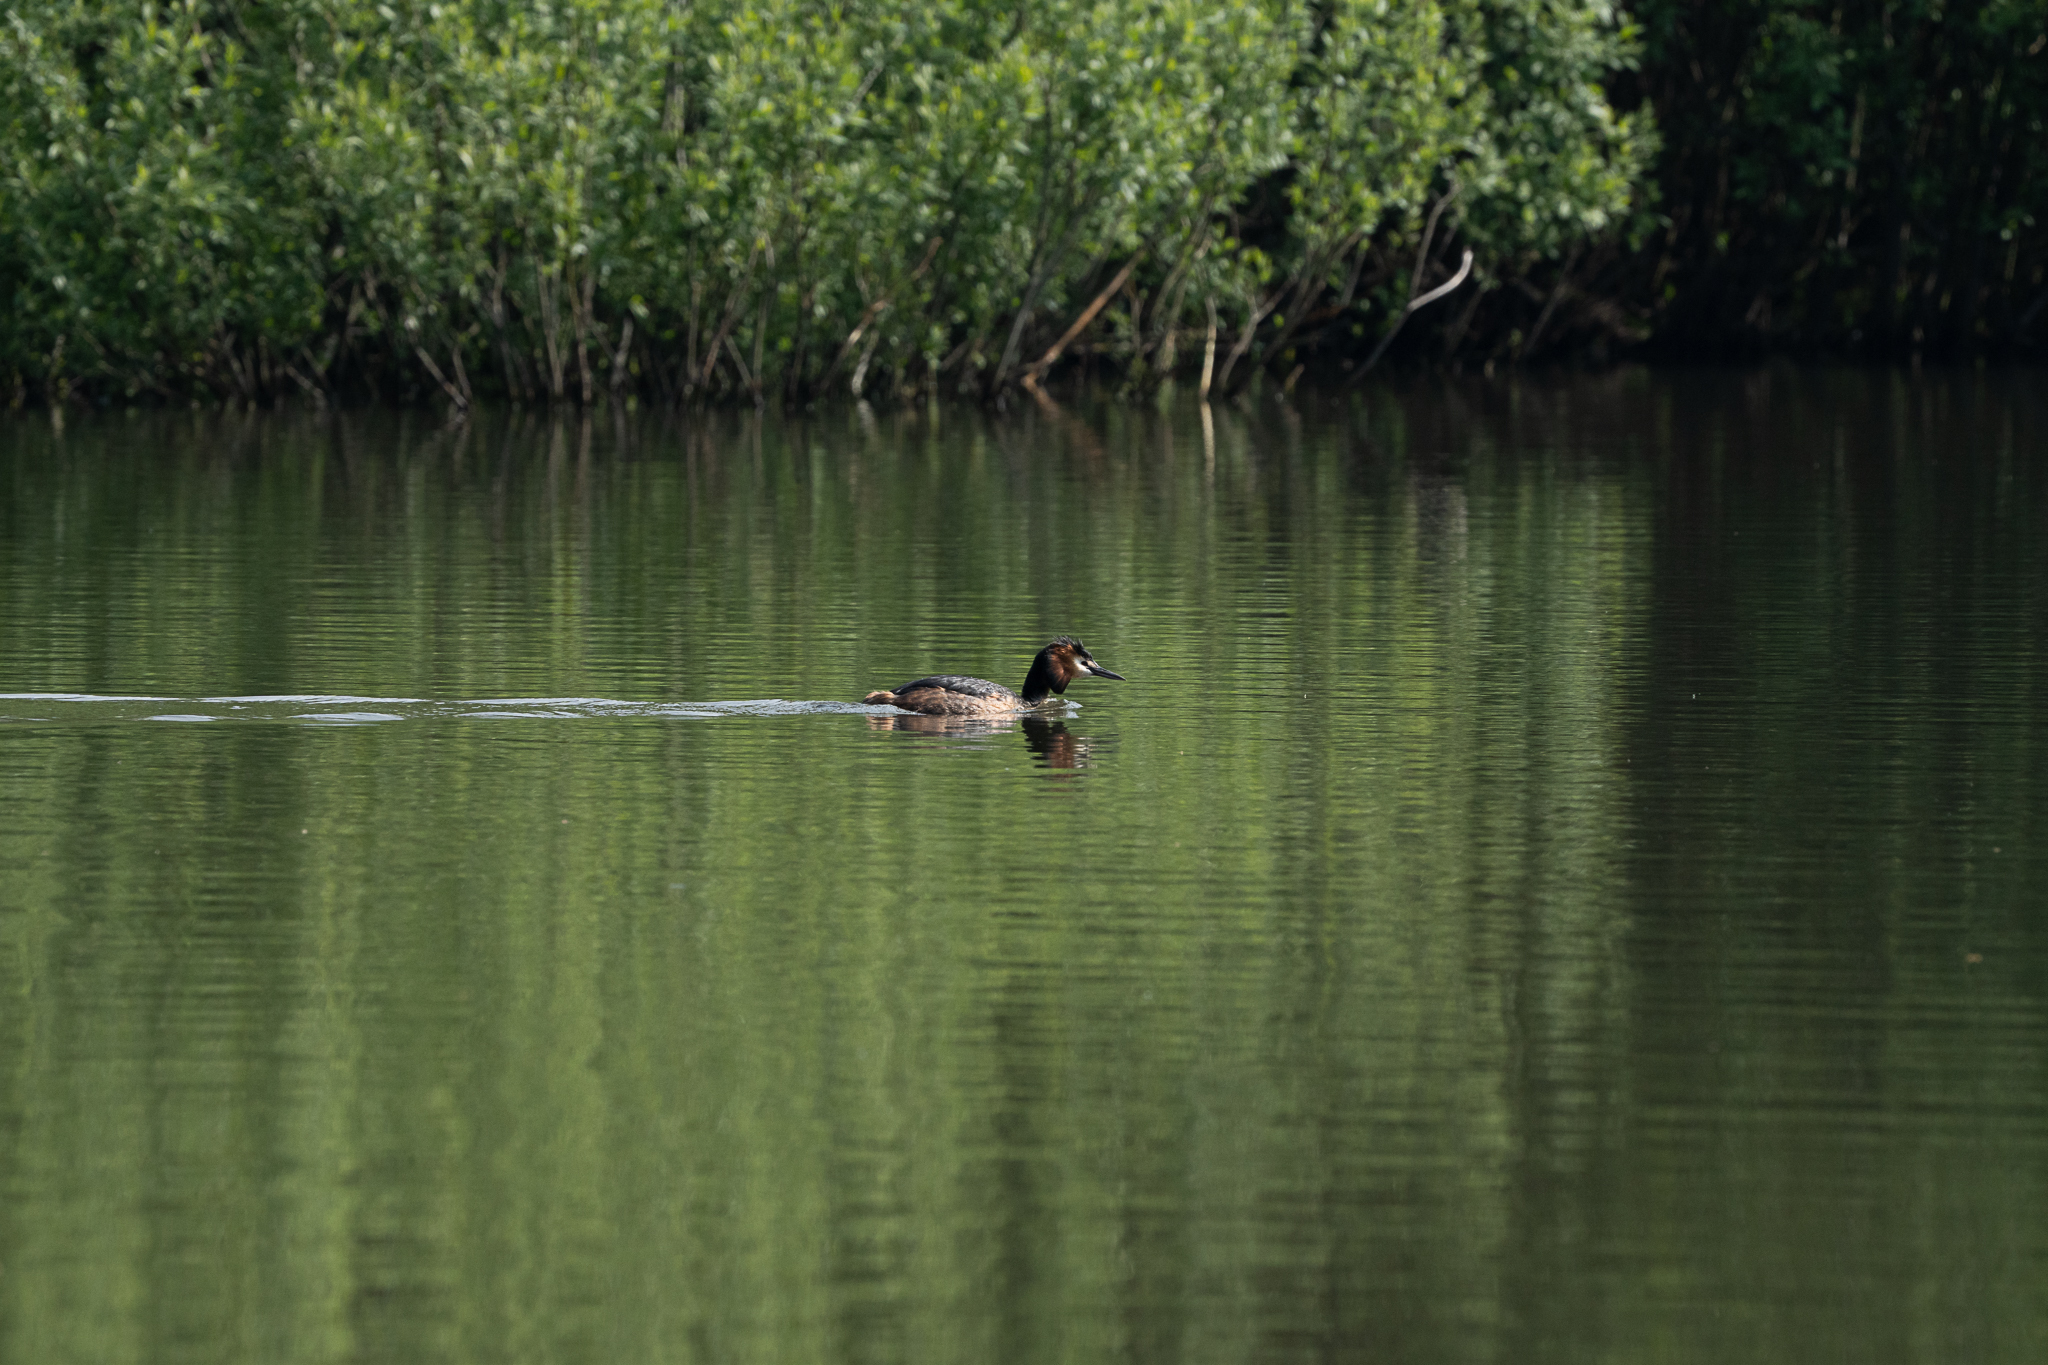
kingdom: Animalia
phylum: Chordata
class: Aves
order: Podicipediformes
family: Podicipedidae
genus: Podiceps
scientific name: Podiceps cristatus
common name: Great crested grebe
